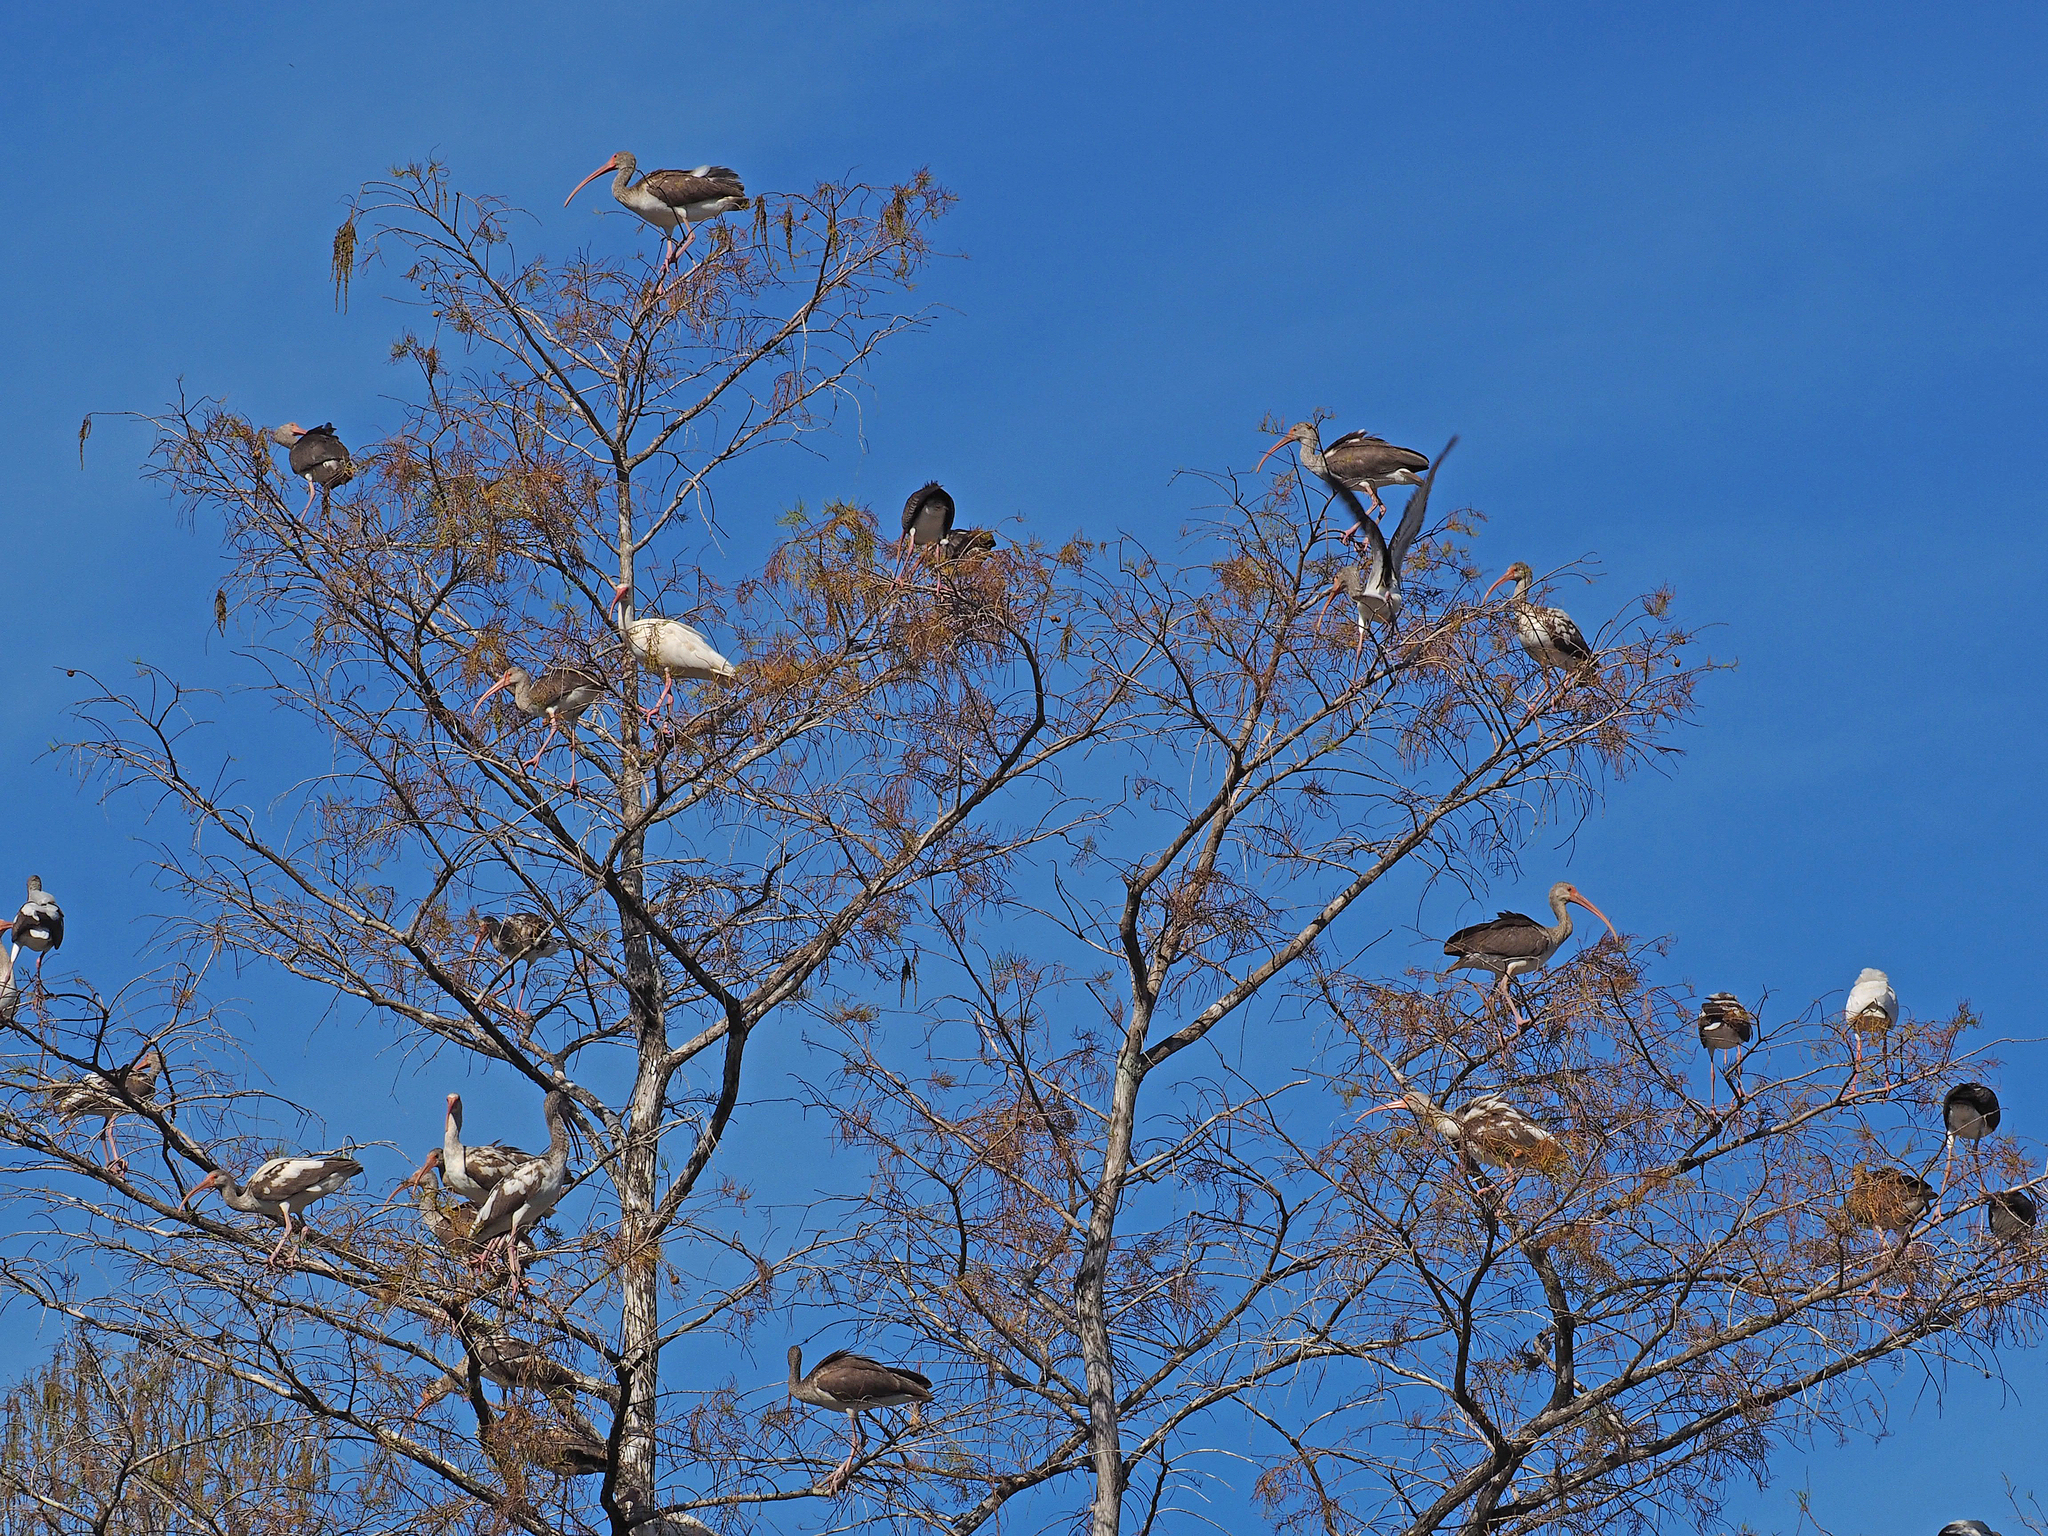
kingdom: Animalia
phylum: Chordata
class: Aves
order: Pelecaniformes
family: Threskiornithidae
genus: Eudocimus
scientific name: Eudocimus albus
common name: White ibis
